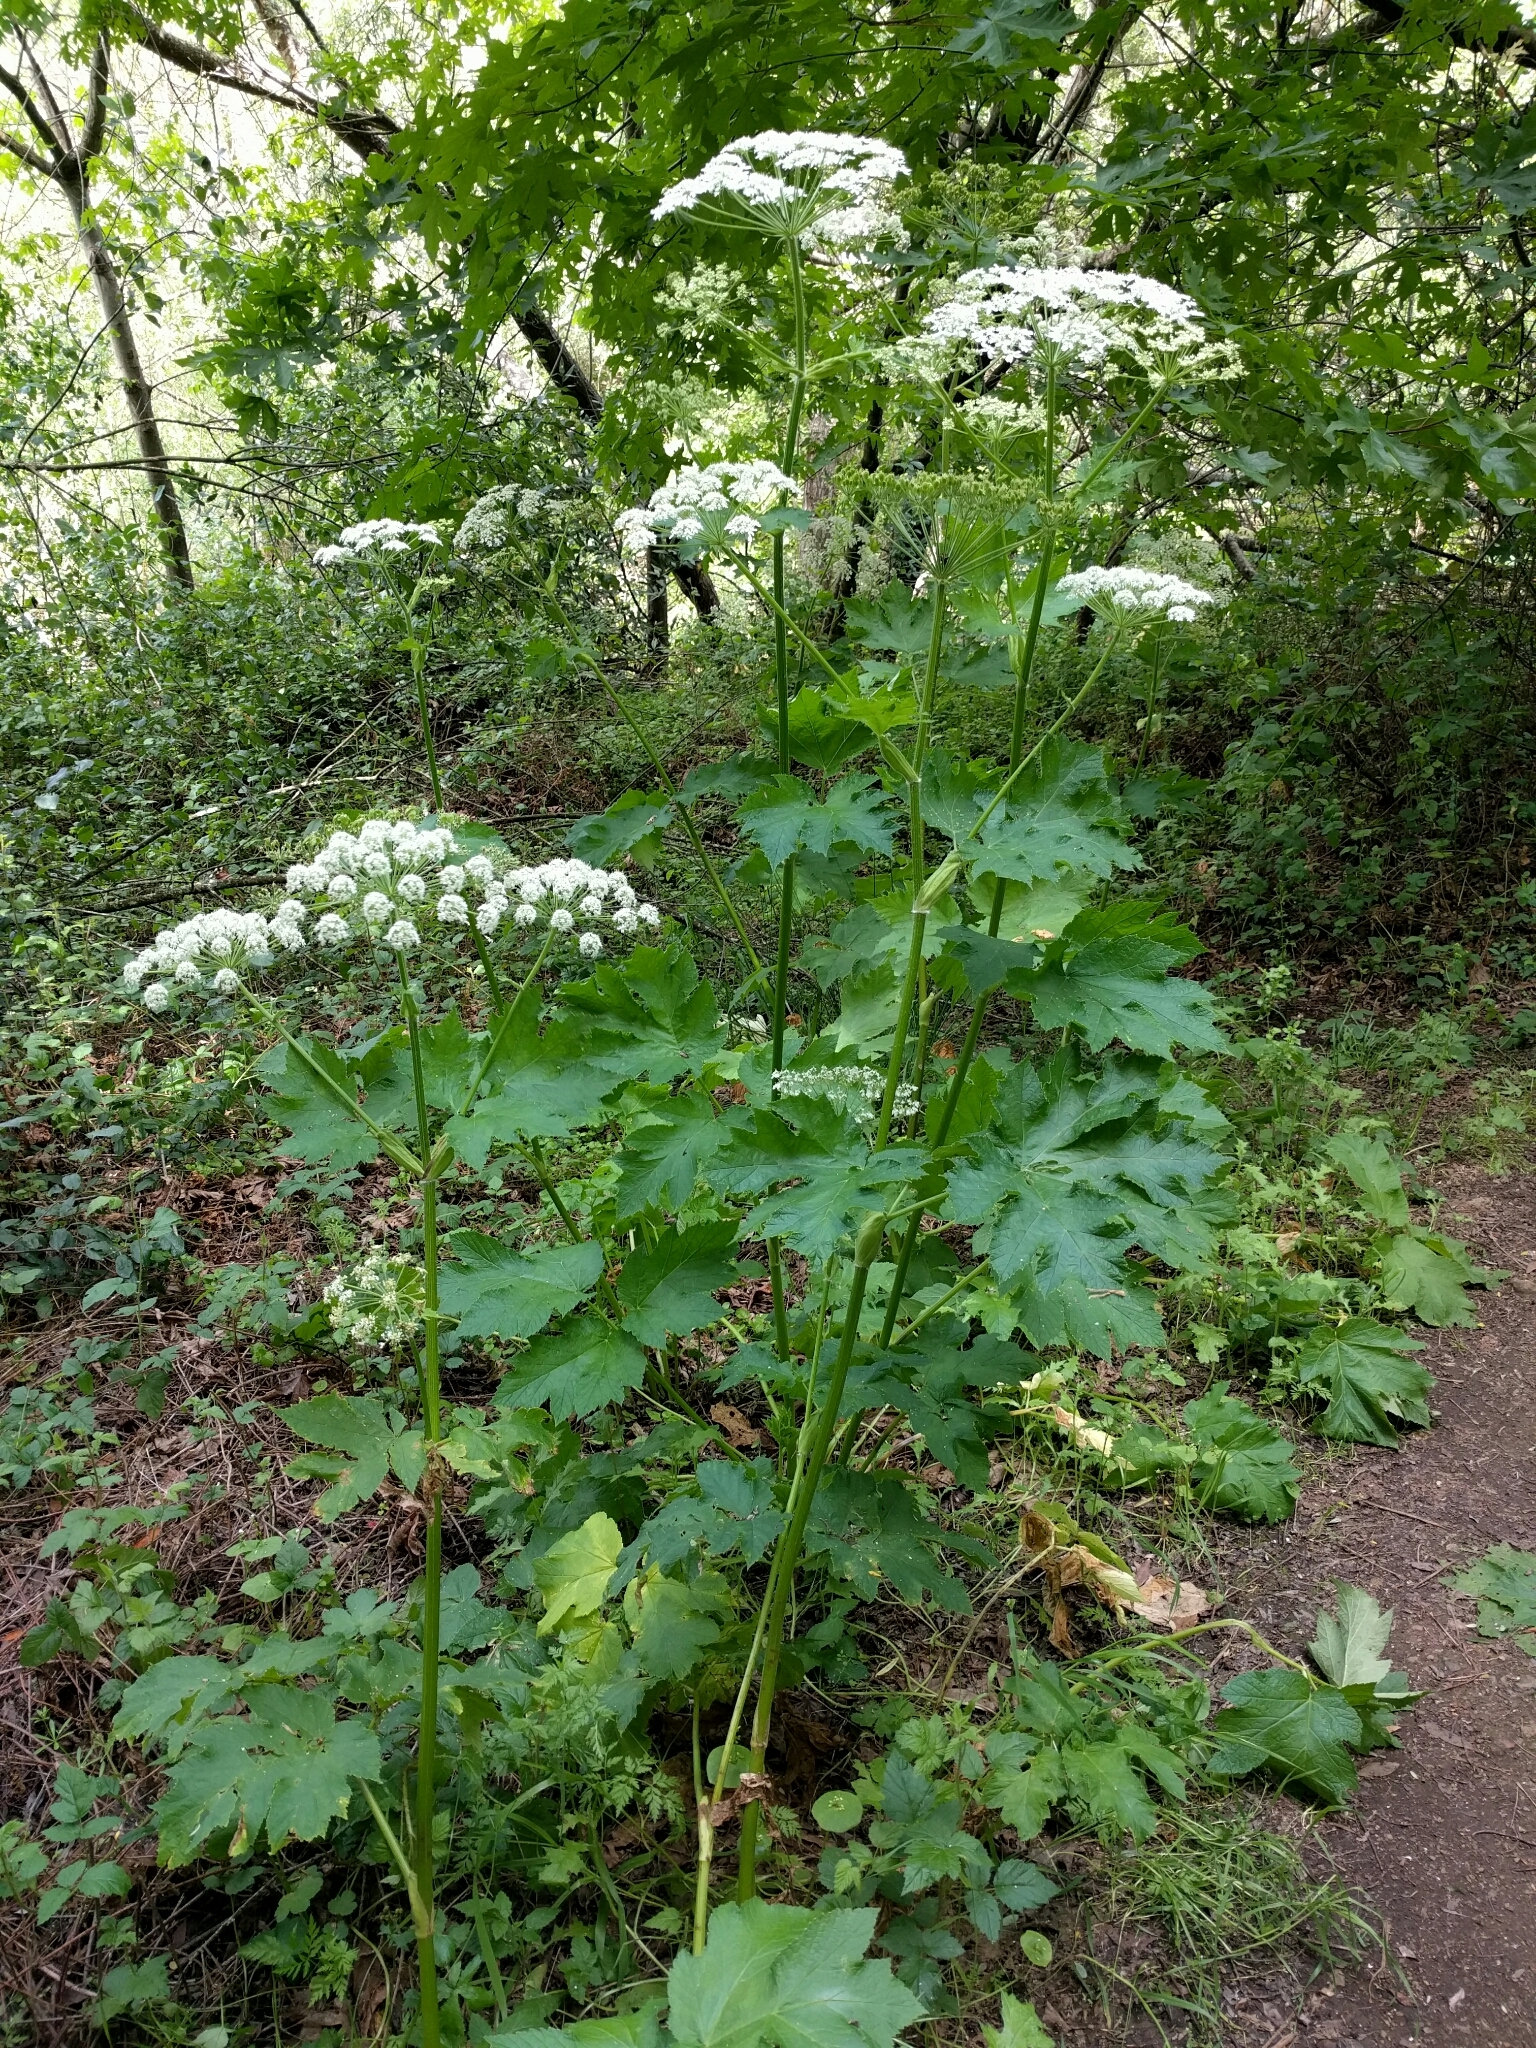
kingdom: Plantae
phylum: Tracheophyta
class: Magnoliopsida
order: Apiales
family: Apiaceae
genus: Heracleum
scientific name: Heracleum maximum
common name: American cow parsnip
